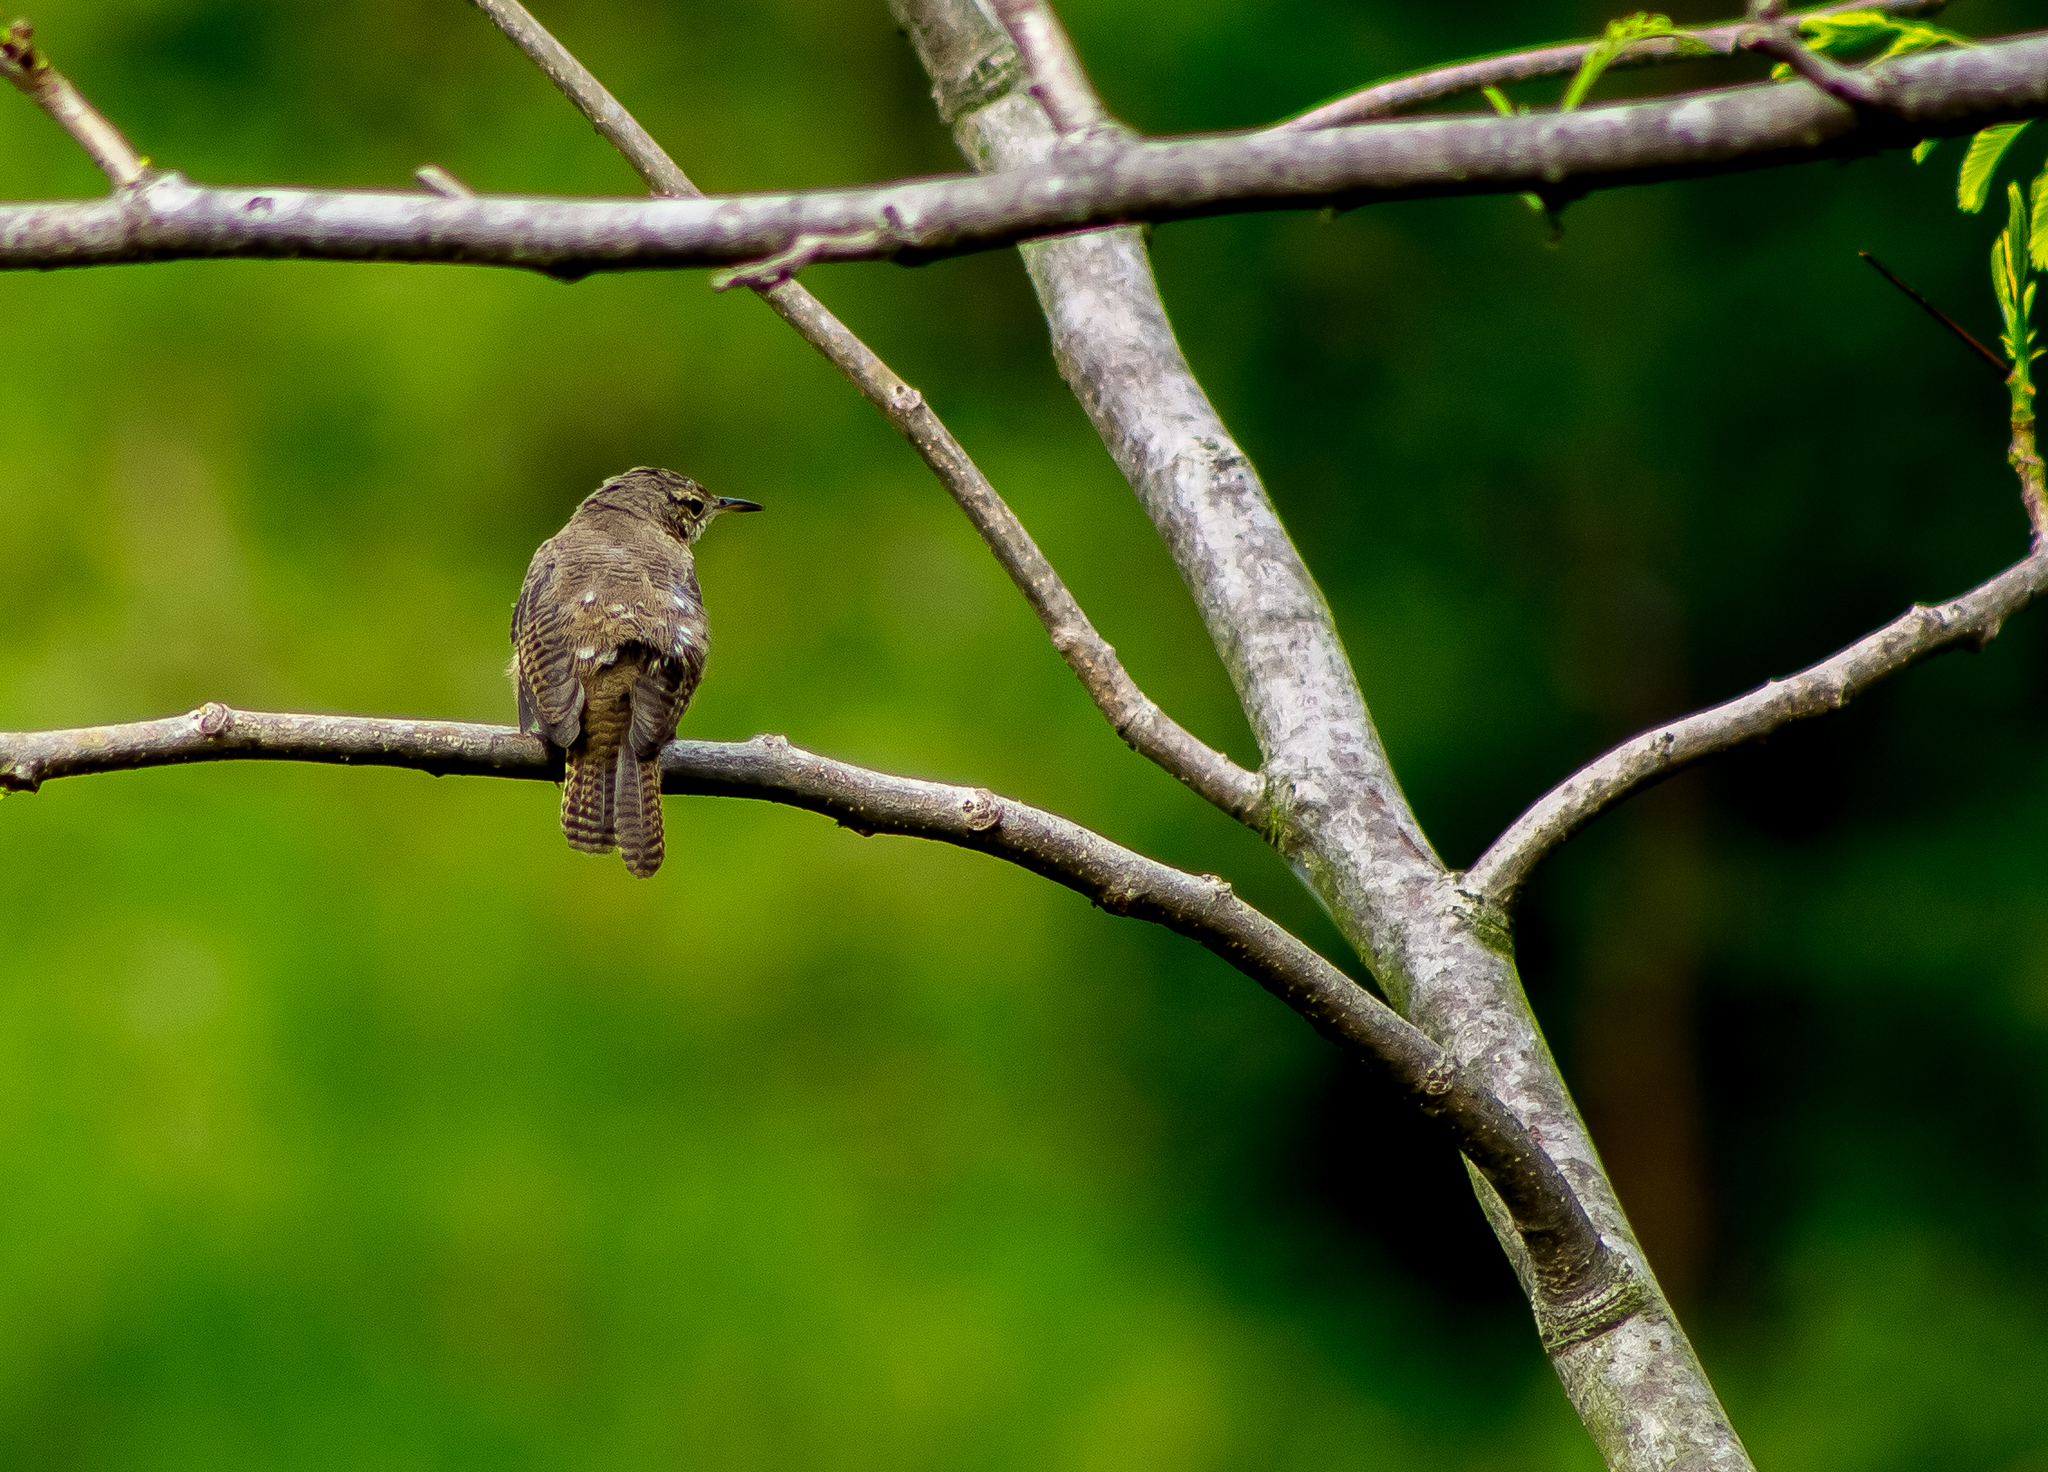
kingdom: Animalia
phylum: Chordata
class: Aves
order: Passeriformes
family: Troglodytidae
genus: Troglodytes
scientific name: Troglodytes aedon
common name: House wren
